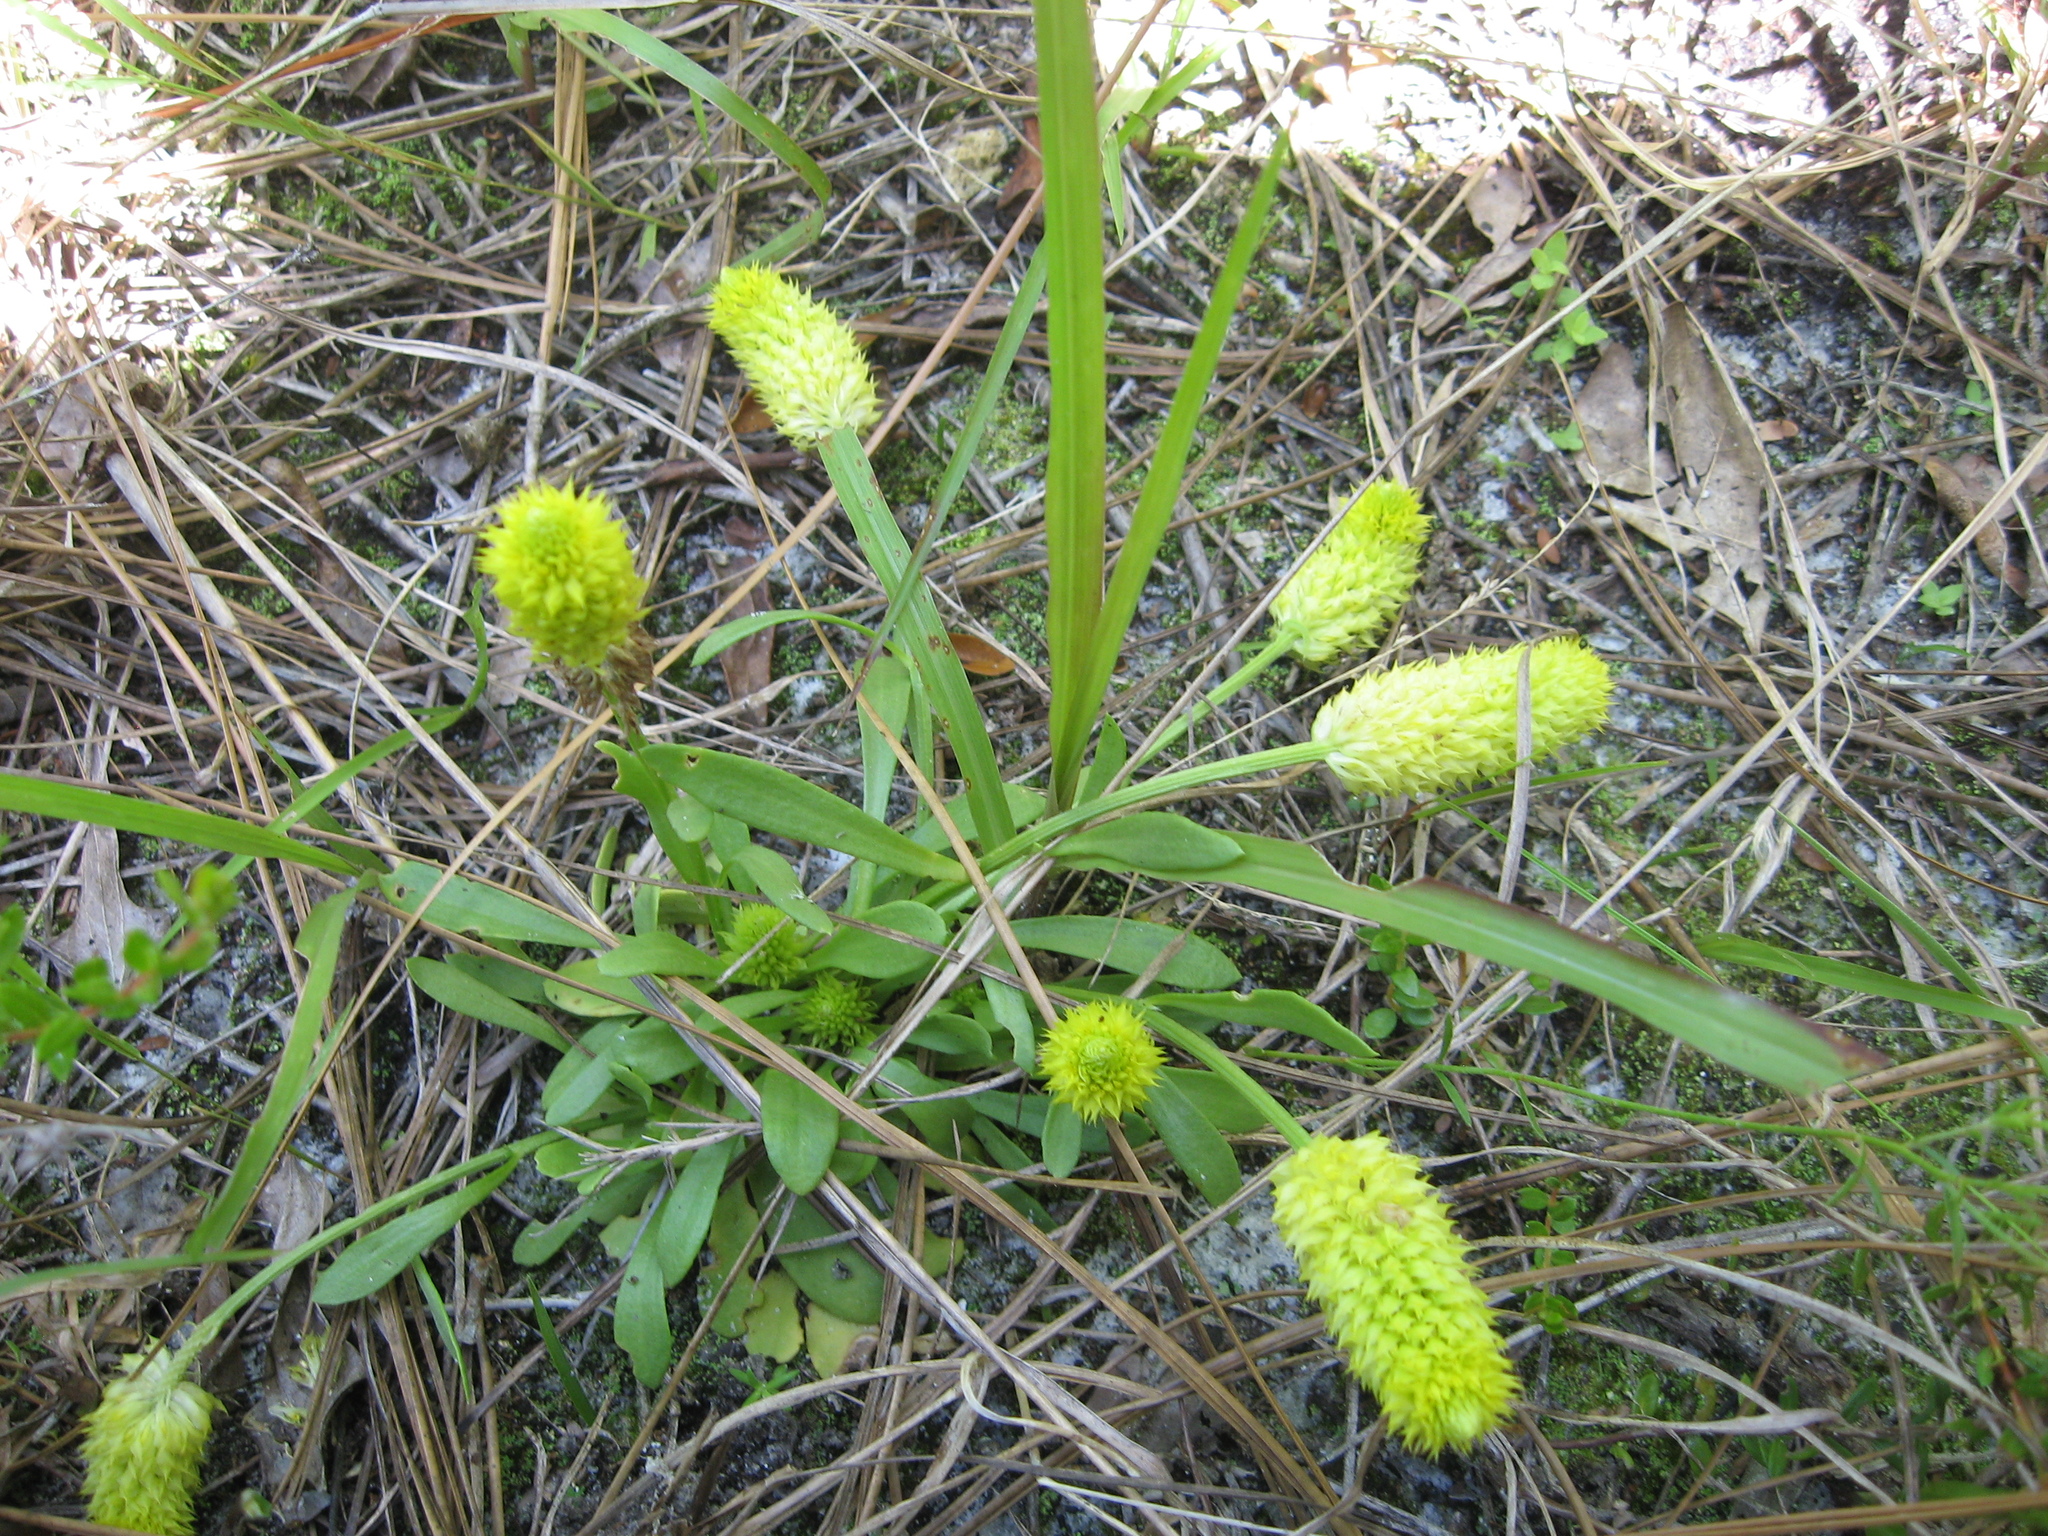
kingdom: Plantae
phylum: Tracheophyta
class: Magnoliopsida
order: Fabales
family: Polygalaceae
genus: Polygala
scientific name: Polygala nana
